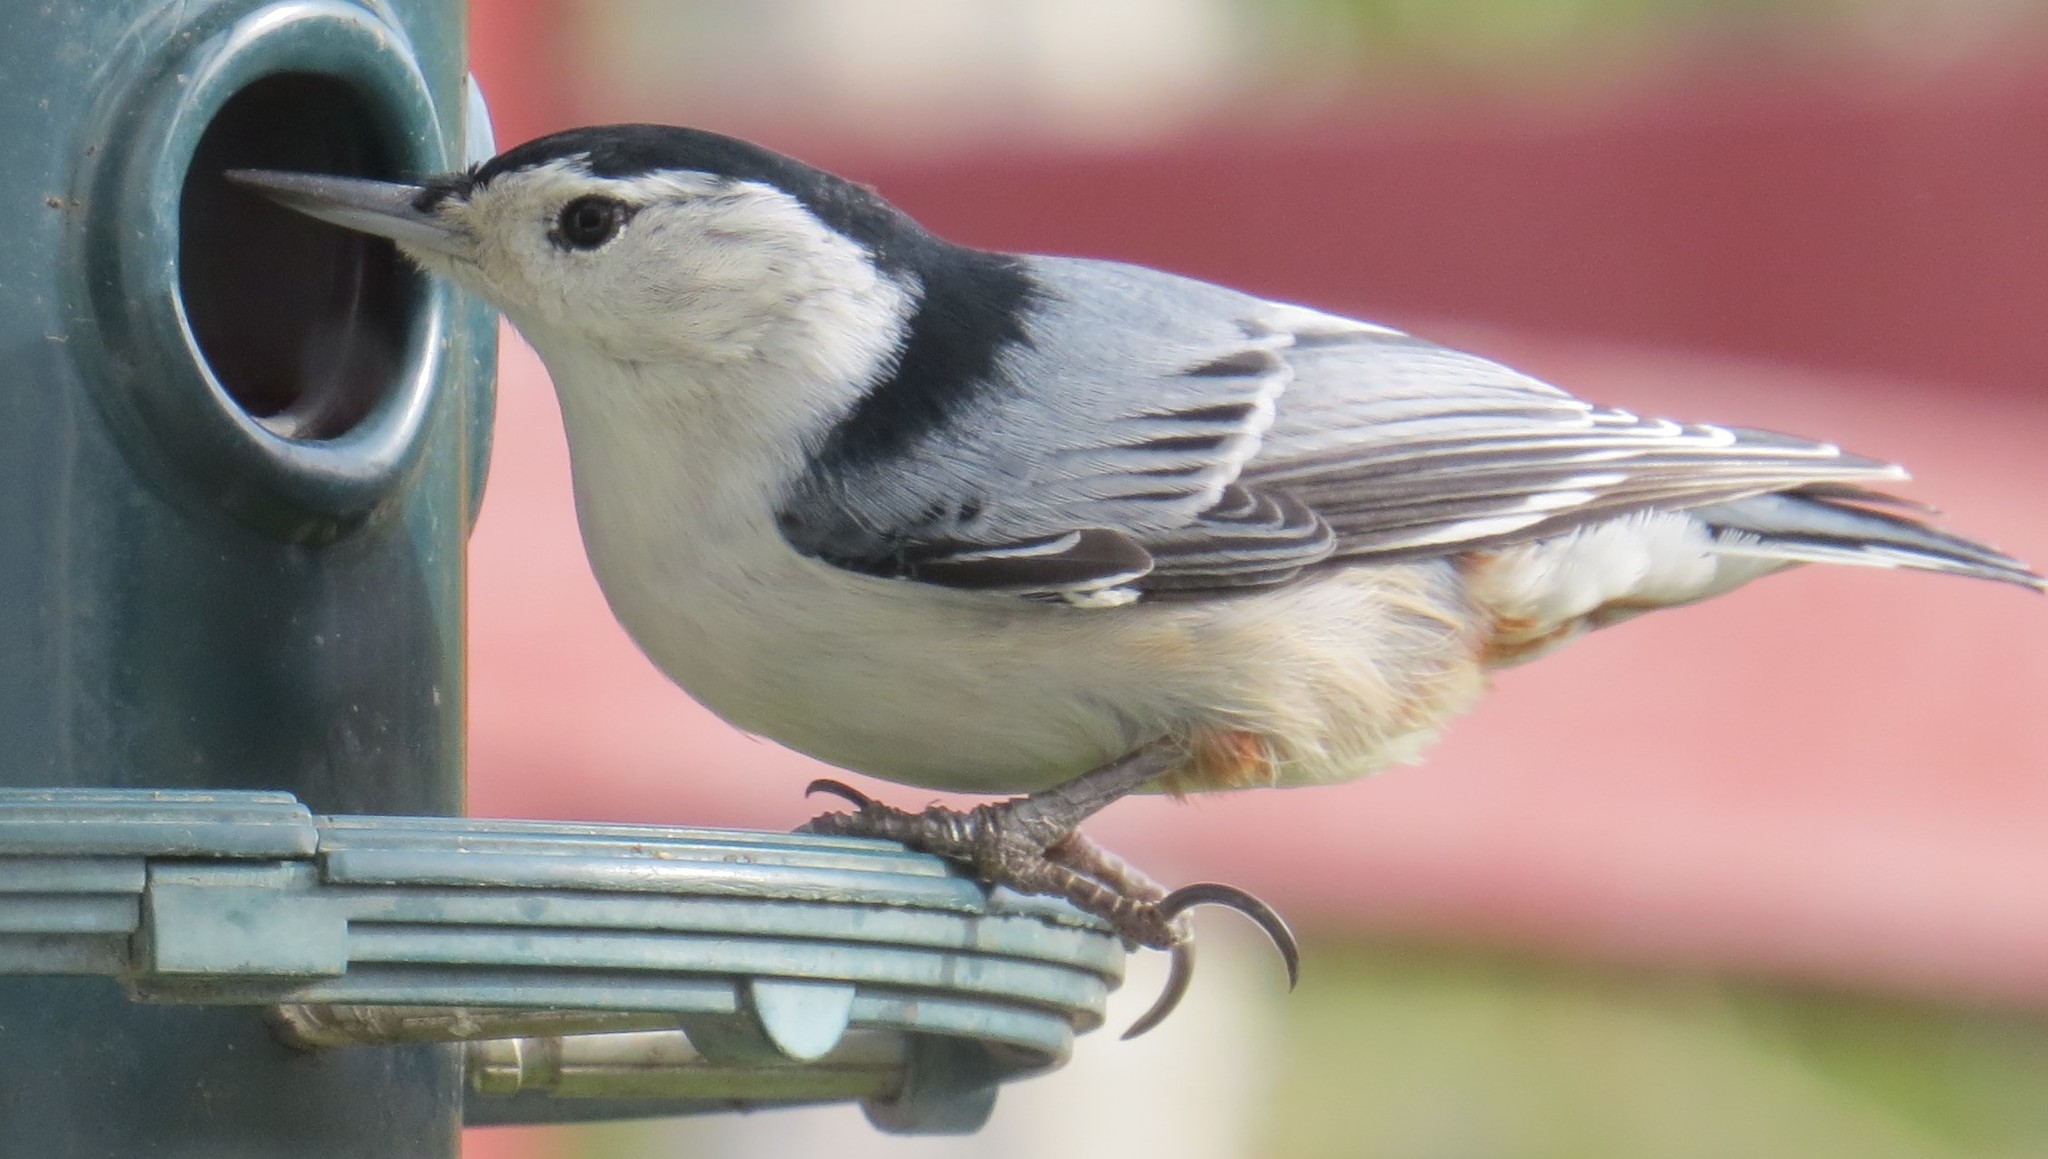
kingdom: Animalia
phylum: Chordata
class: Aves
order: Passeriformes
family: Sittidae
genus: Sitta
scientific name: Sitta carolinensis
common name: White-breasted nuthatch
